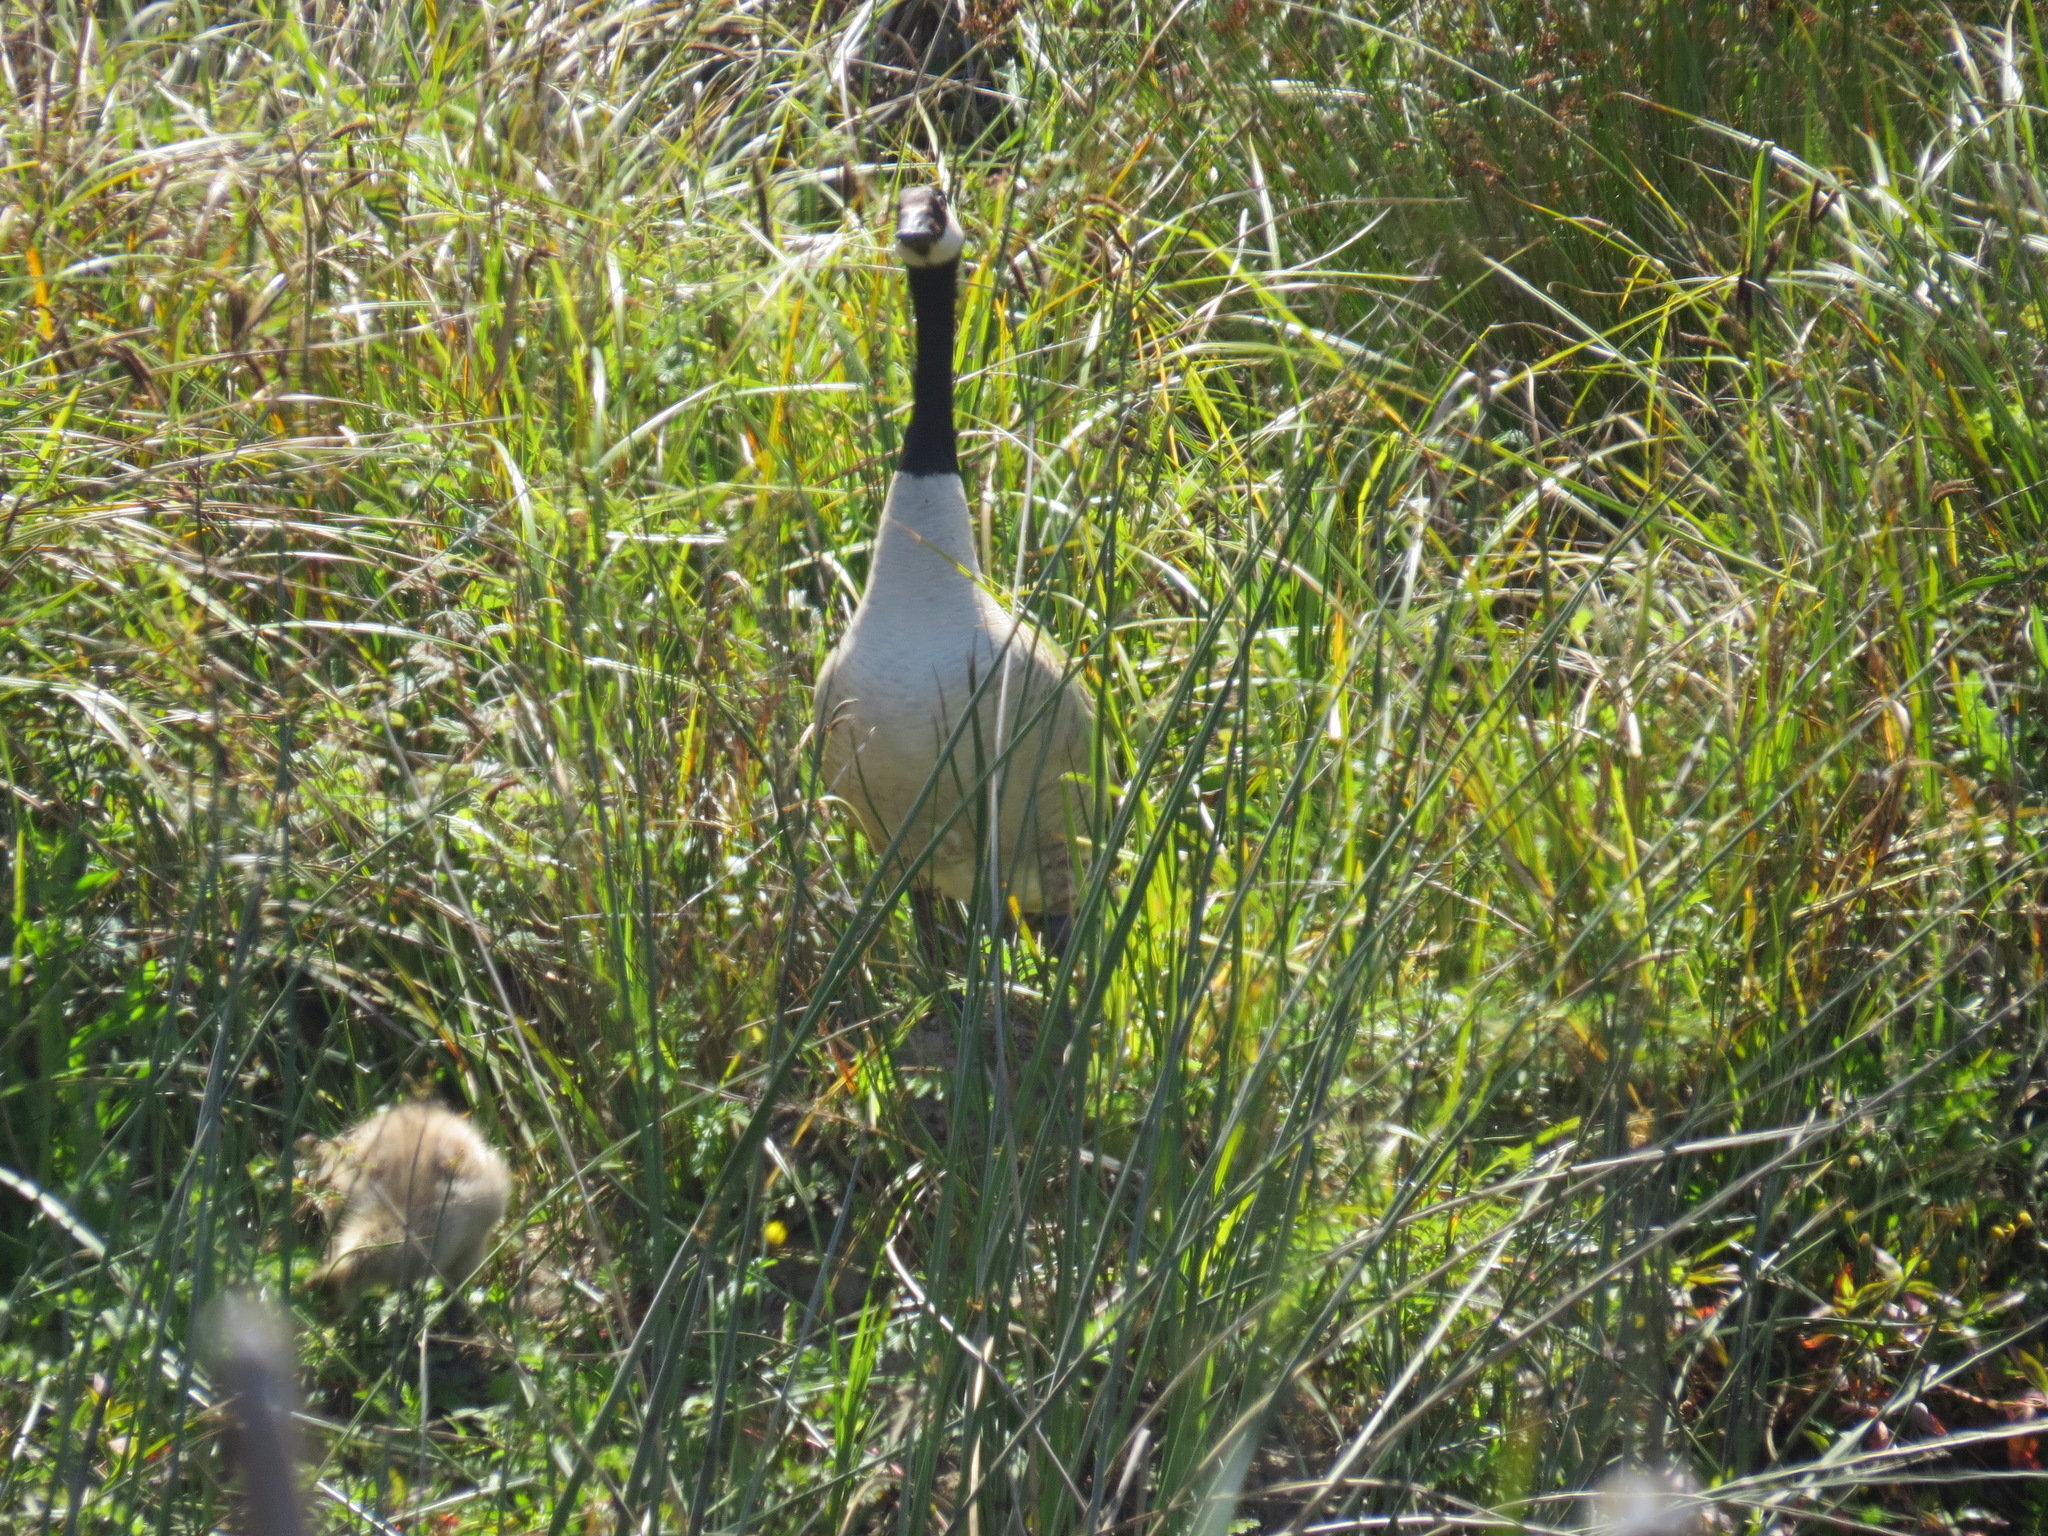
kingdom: Animalia
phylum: Chordata
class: Aves
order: Anseriformes
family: Anatidae
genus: Branta
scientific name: Branta canadensis
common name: Canada goose
